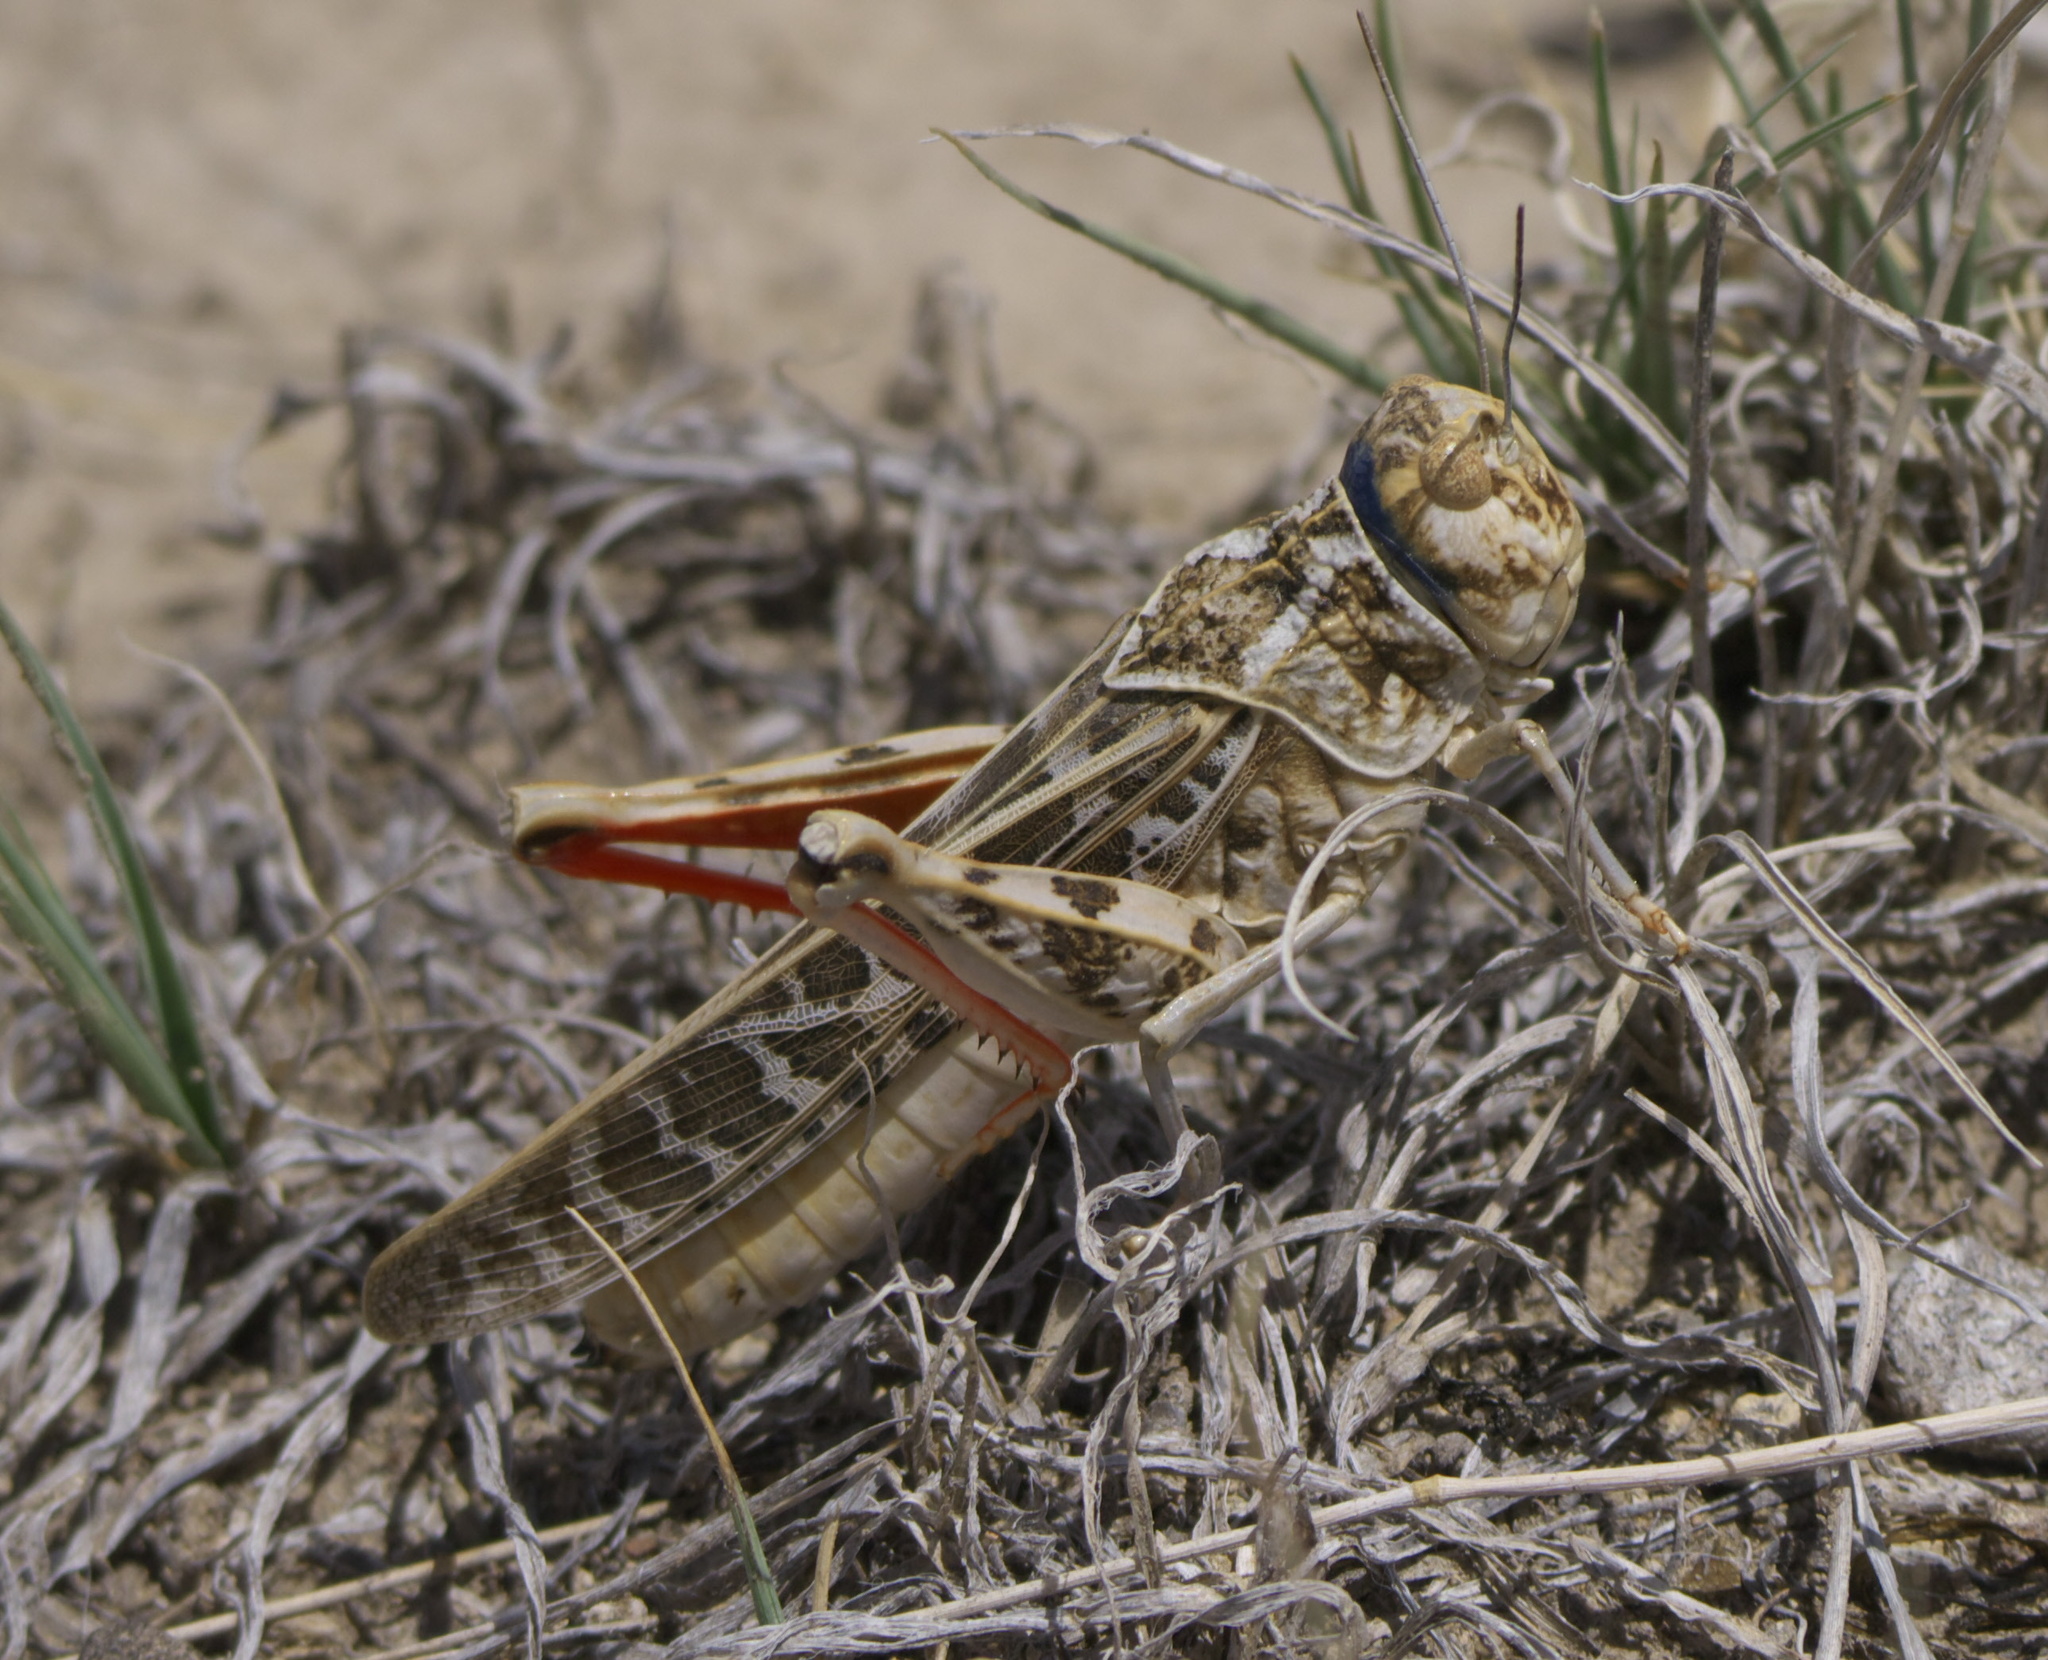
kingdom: Animalia
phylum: Arthropoda
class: Insecta
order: Orthoptera
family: Acrididae
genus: Xanthippus
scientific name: Xanthippus corallipes
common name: Redshanked grasshopper
